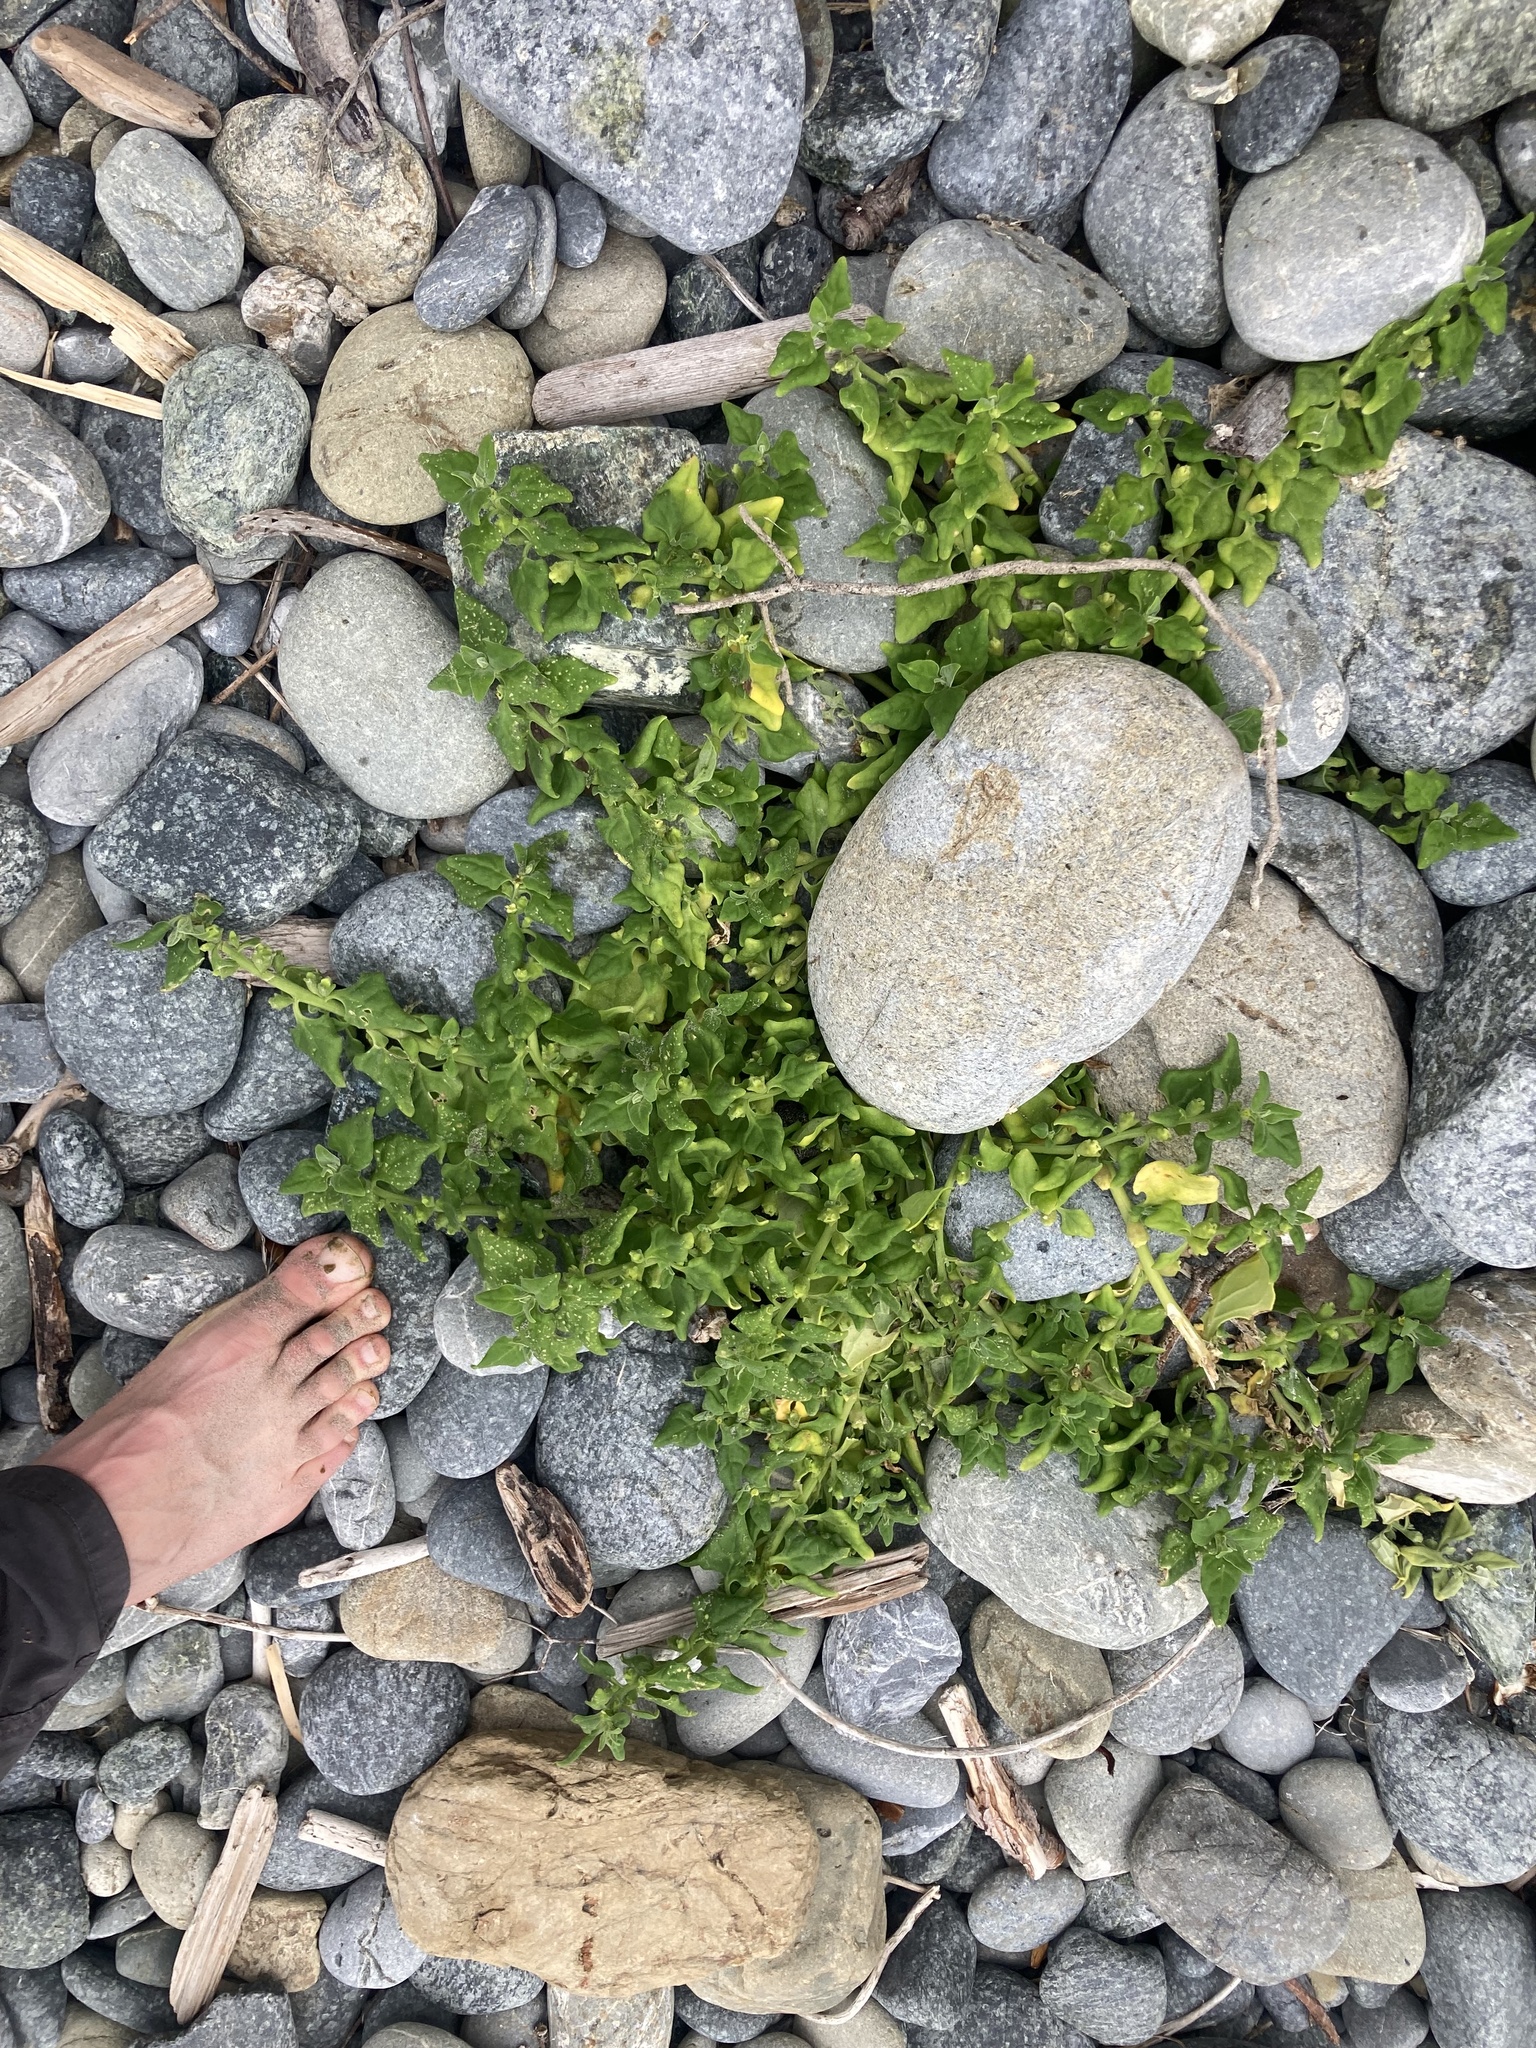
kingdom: Plantae
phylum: Tracheophyta
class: Magnoliopsida
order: Caryophyllales
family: Aizoaceae
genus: Tetragonia
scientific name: Tetragonia tetragonoides
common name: New zealand-spinach
